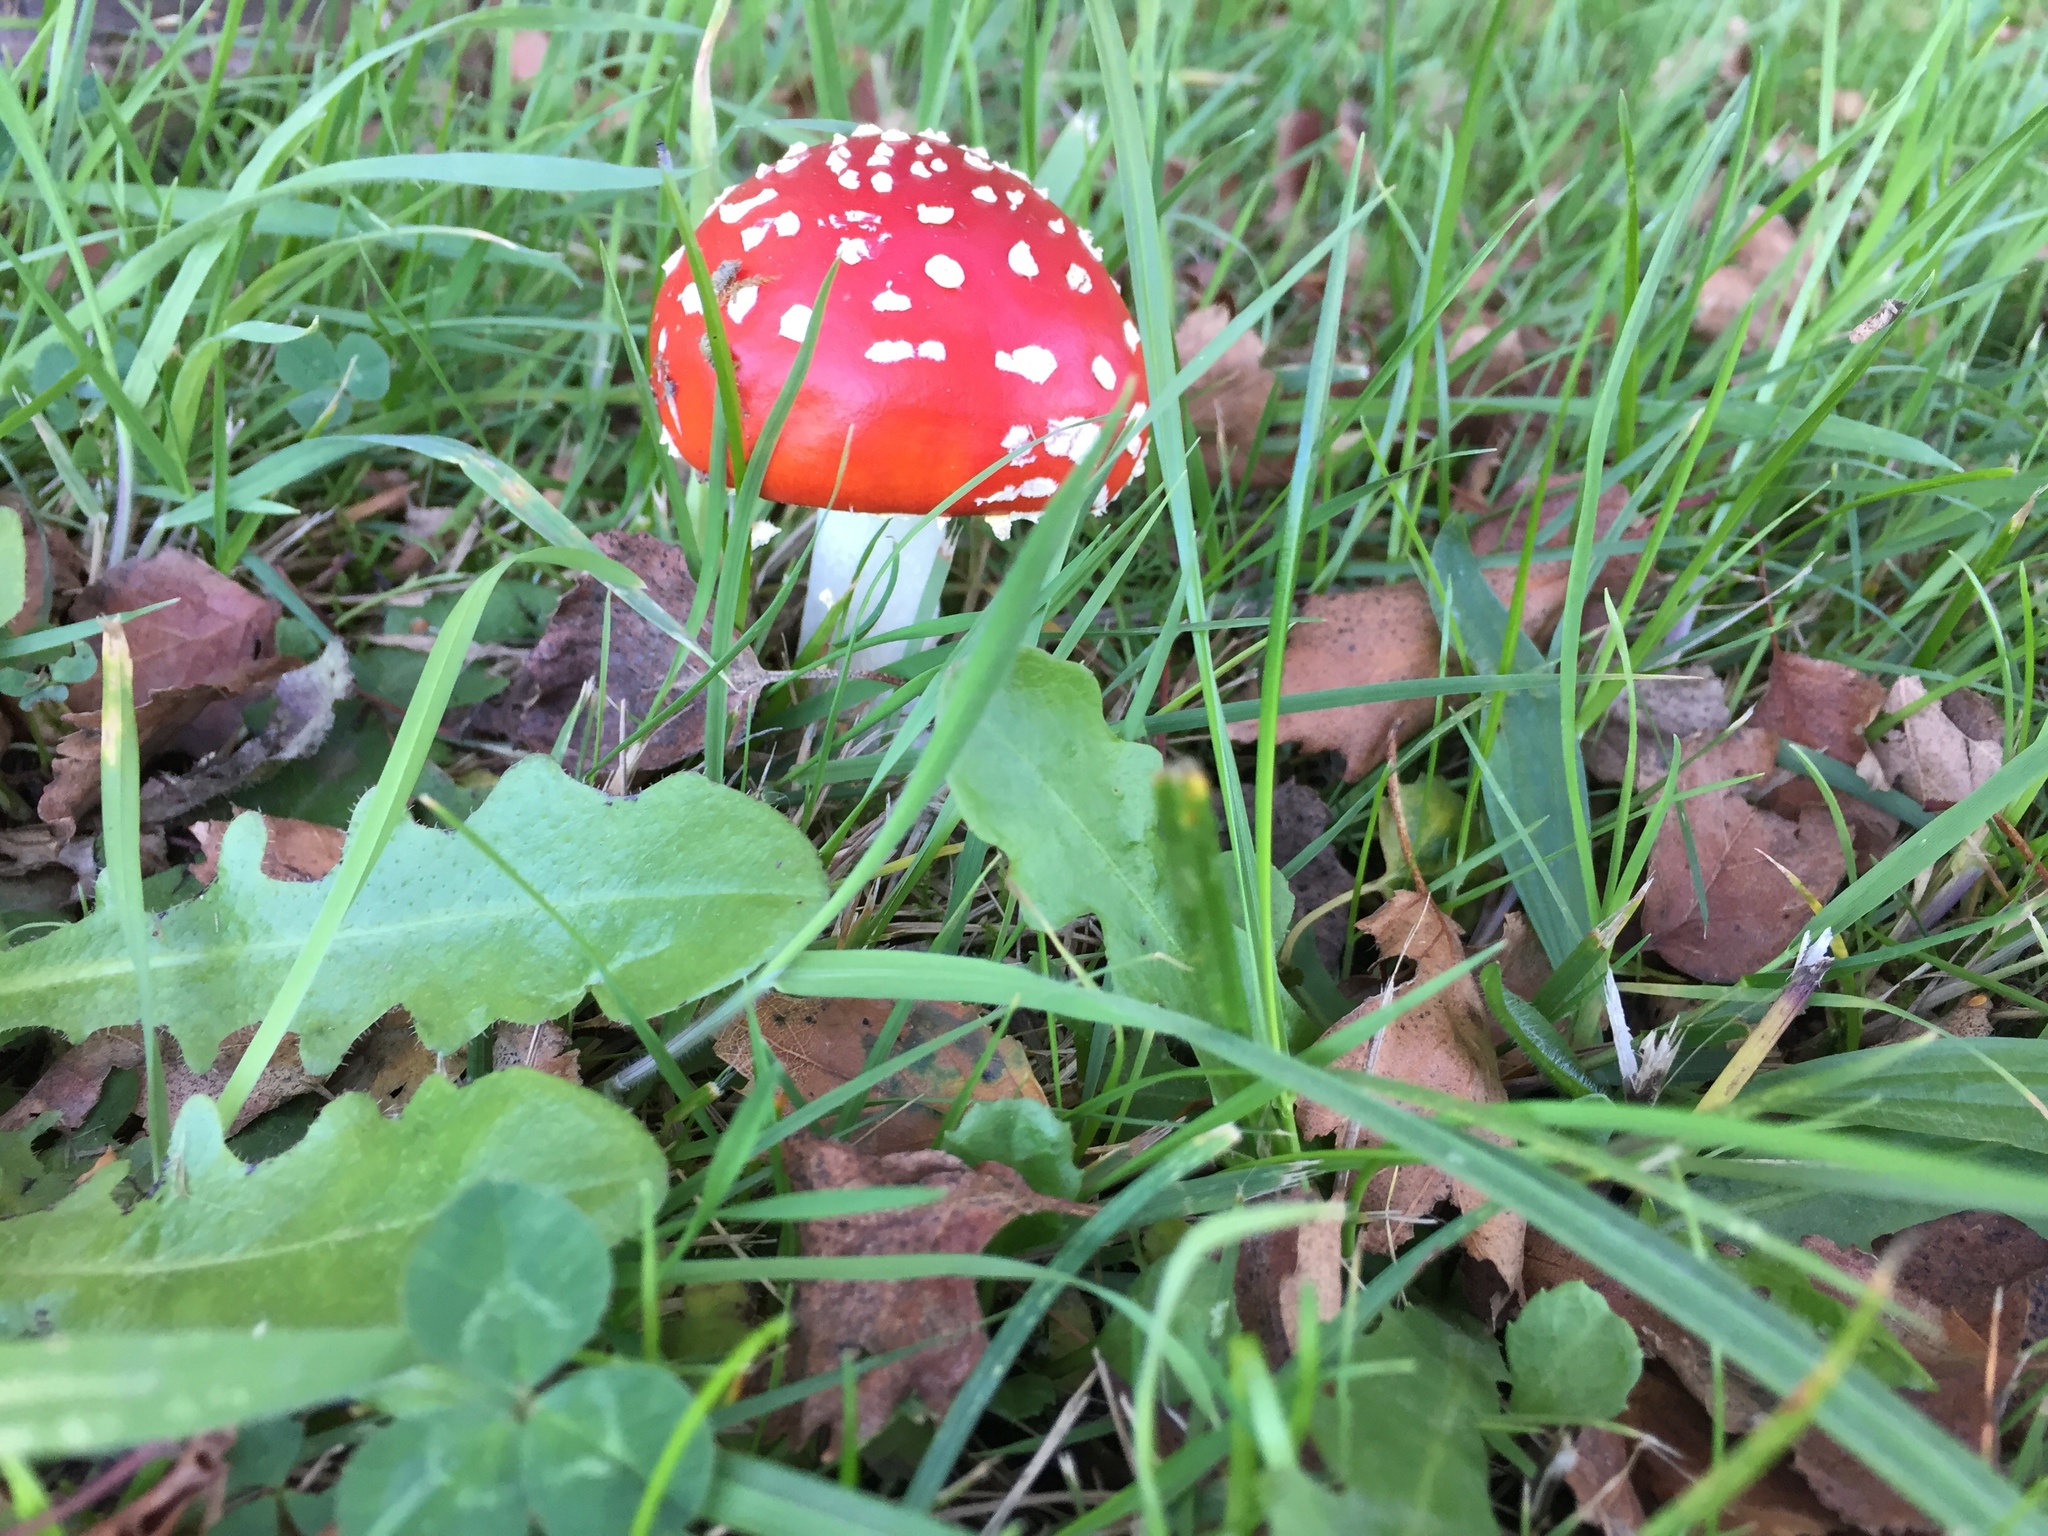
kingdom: Fungi
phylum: Basidiomycota
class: Agaricomycetes
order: Agaricales
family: Amanitaceae
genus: Amanita
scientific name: Amanita muscaria
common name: Fly agaric
